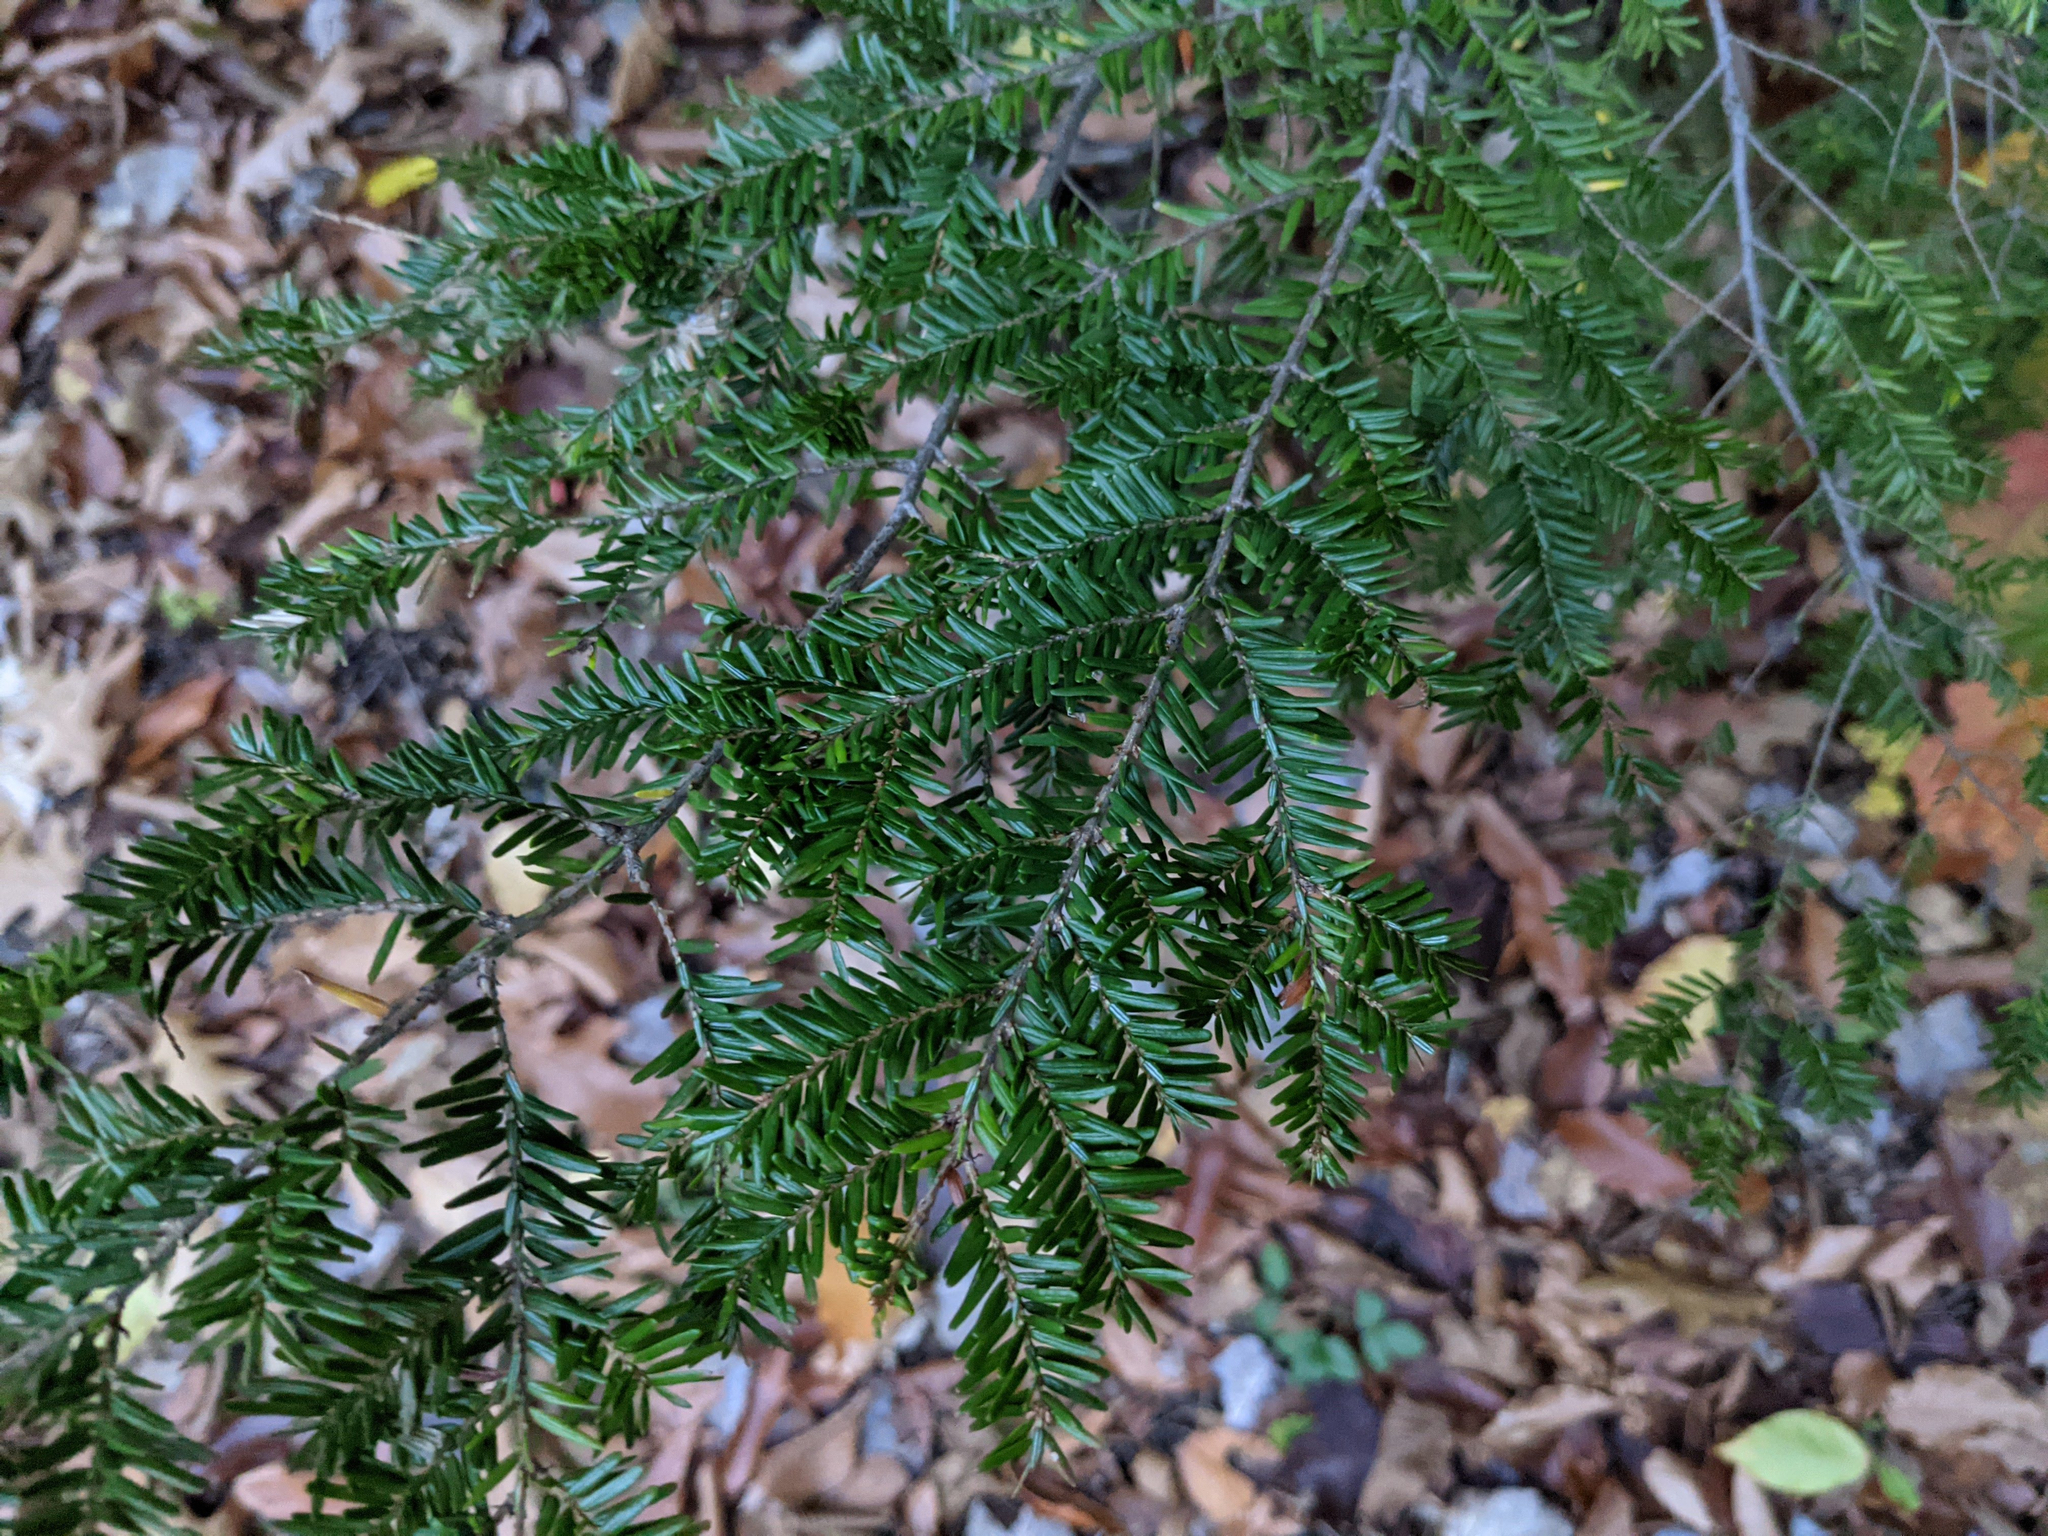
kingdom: Plantae
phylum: Tracheophyta
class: Pinopsida
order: Pinales
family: Pinaceae
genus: Tsuga
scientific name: Tsuga canadensis
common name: Eastern hemlock
